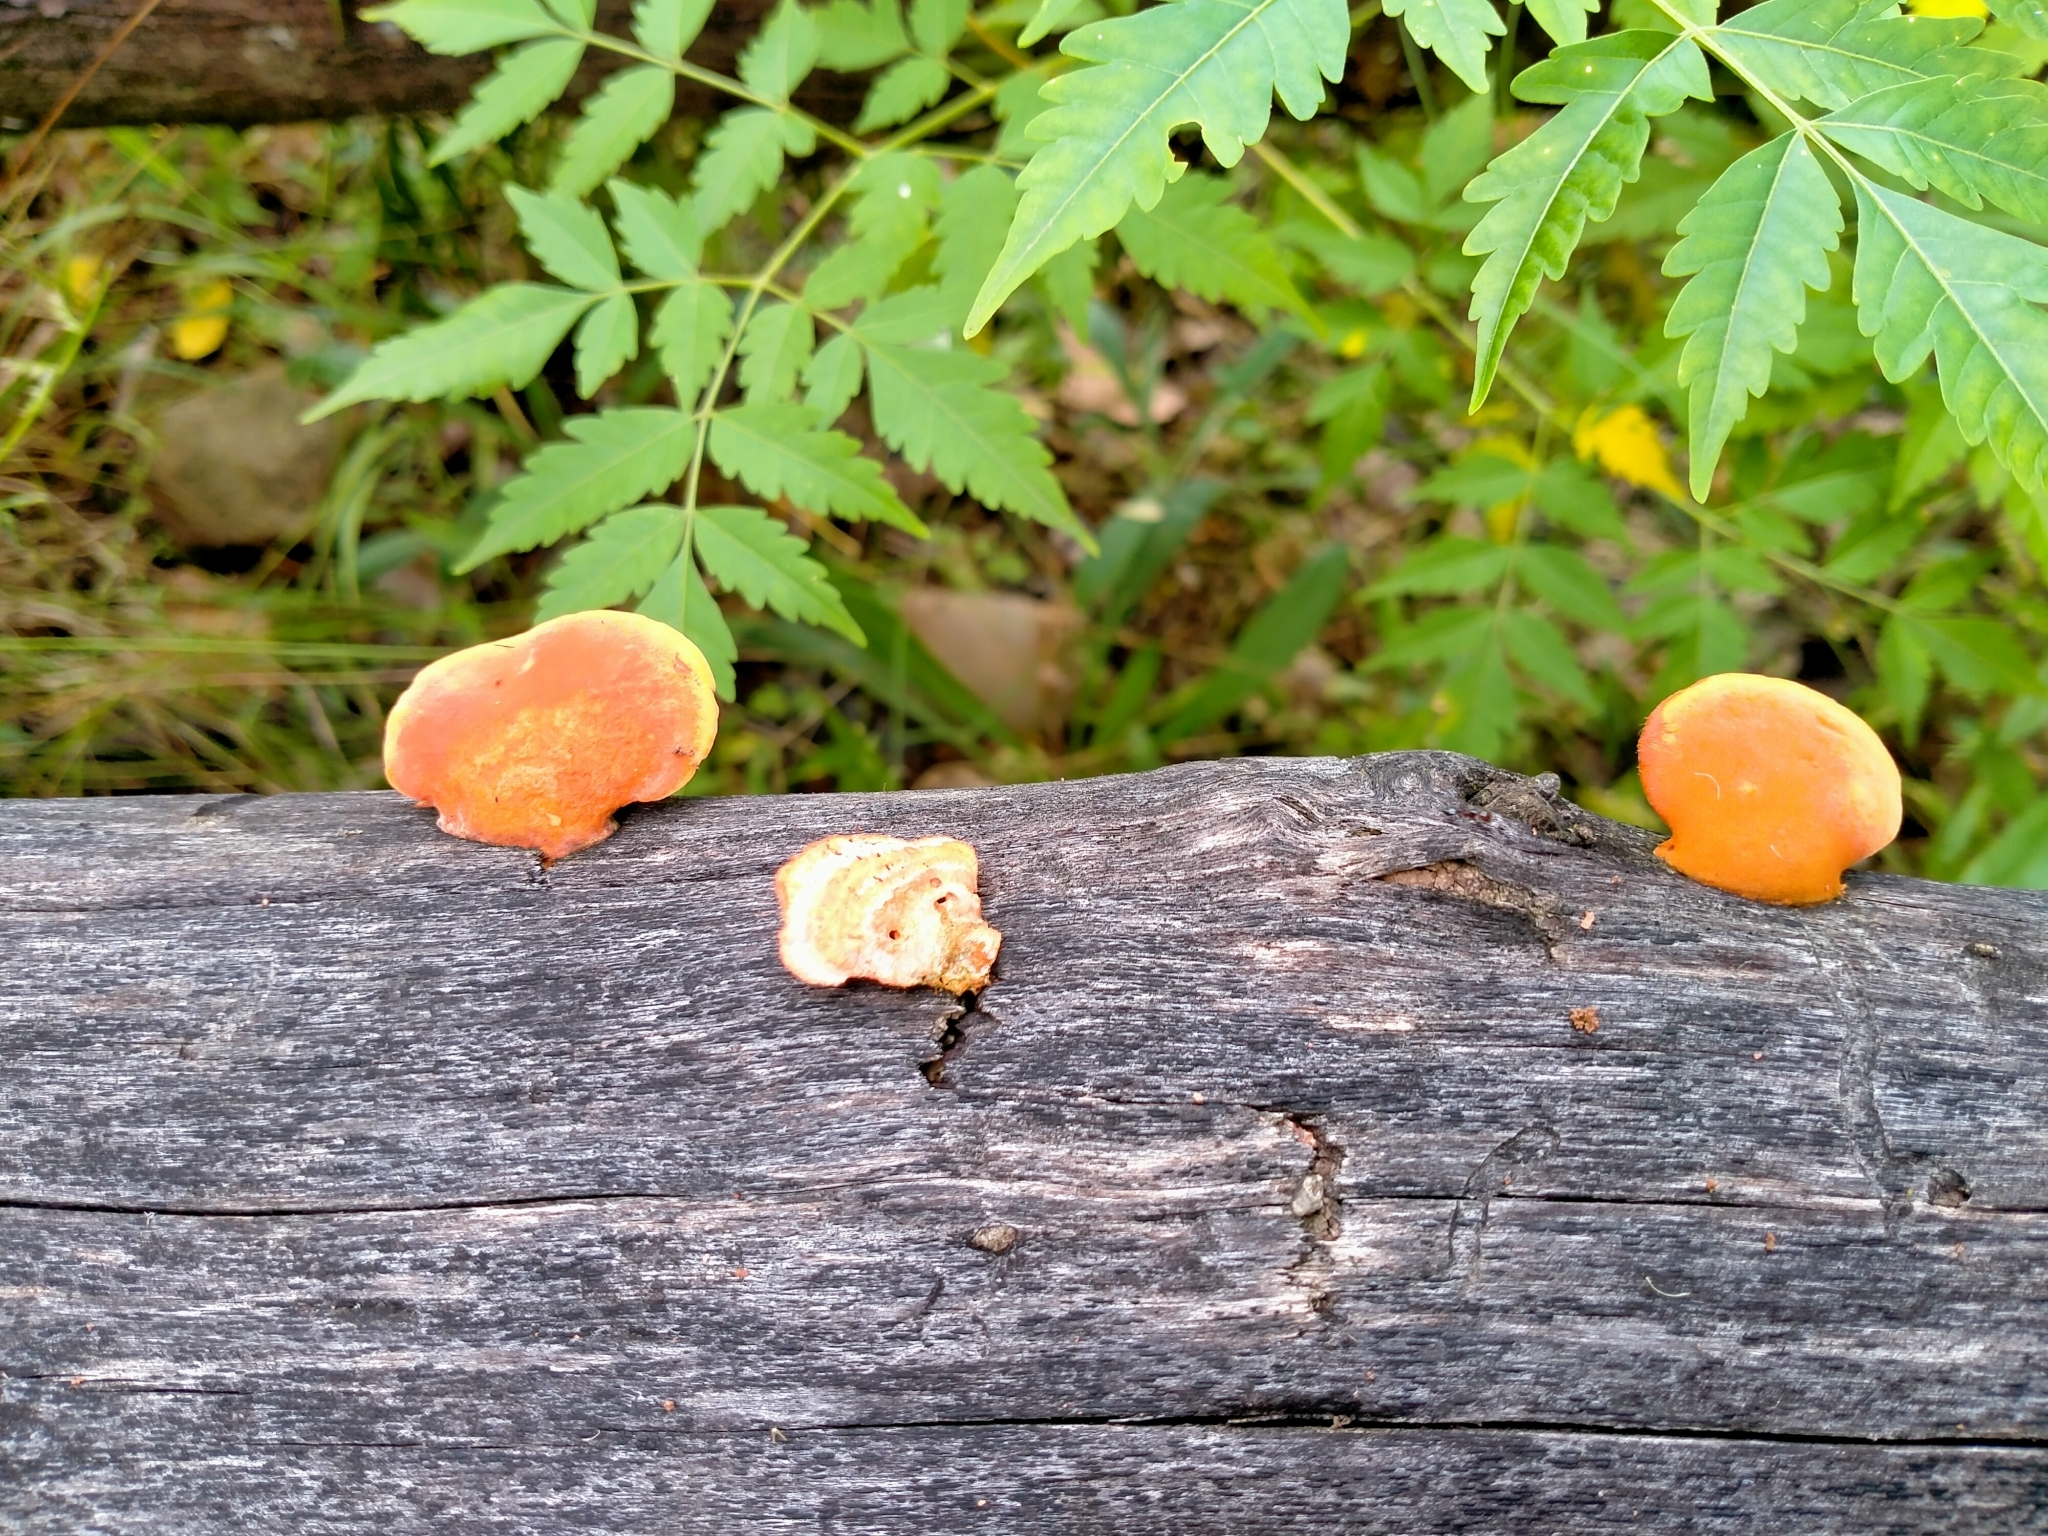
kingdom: Fungi
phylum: Basidiomycota
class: Agaricomycetes
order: Polyporales
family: Polyporaceae
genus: Trametes
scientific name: Trametes coccinea
